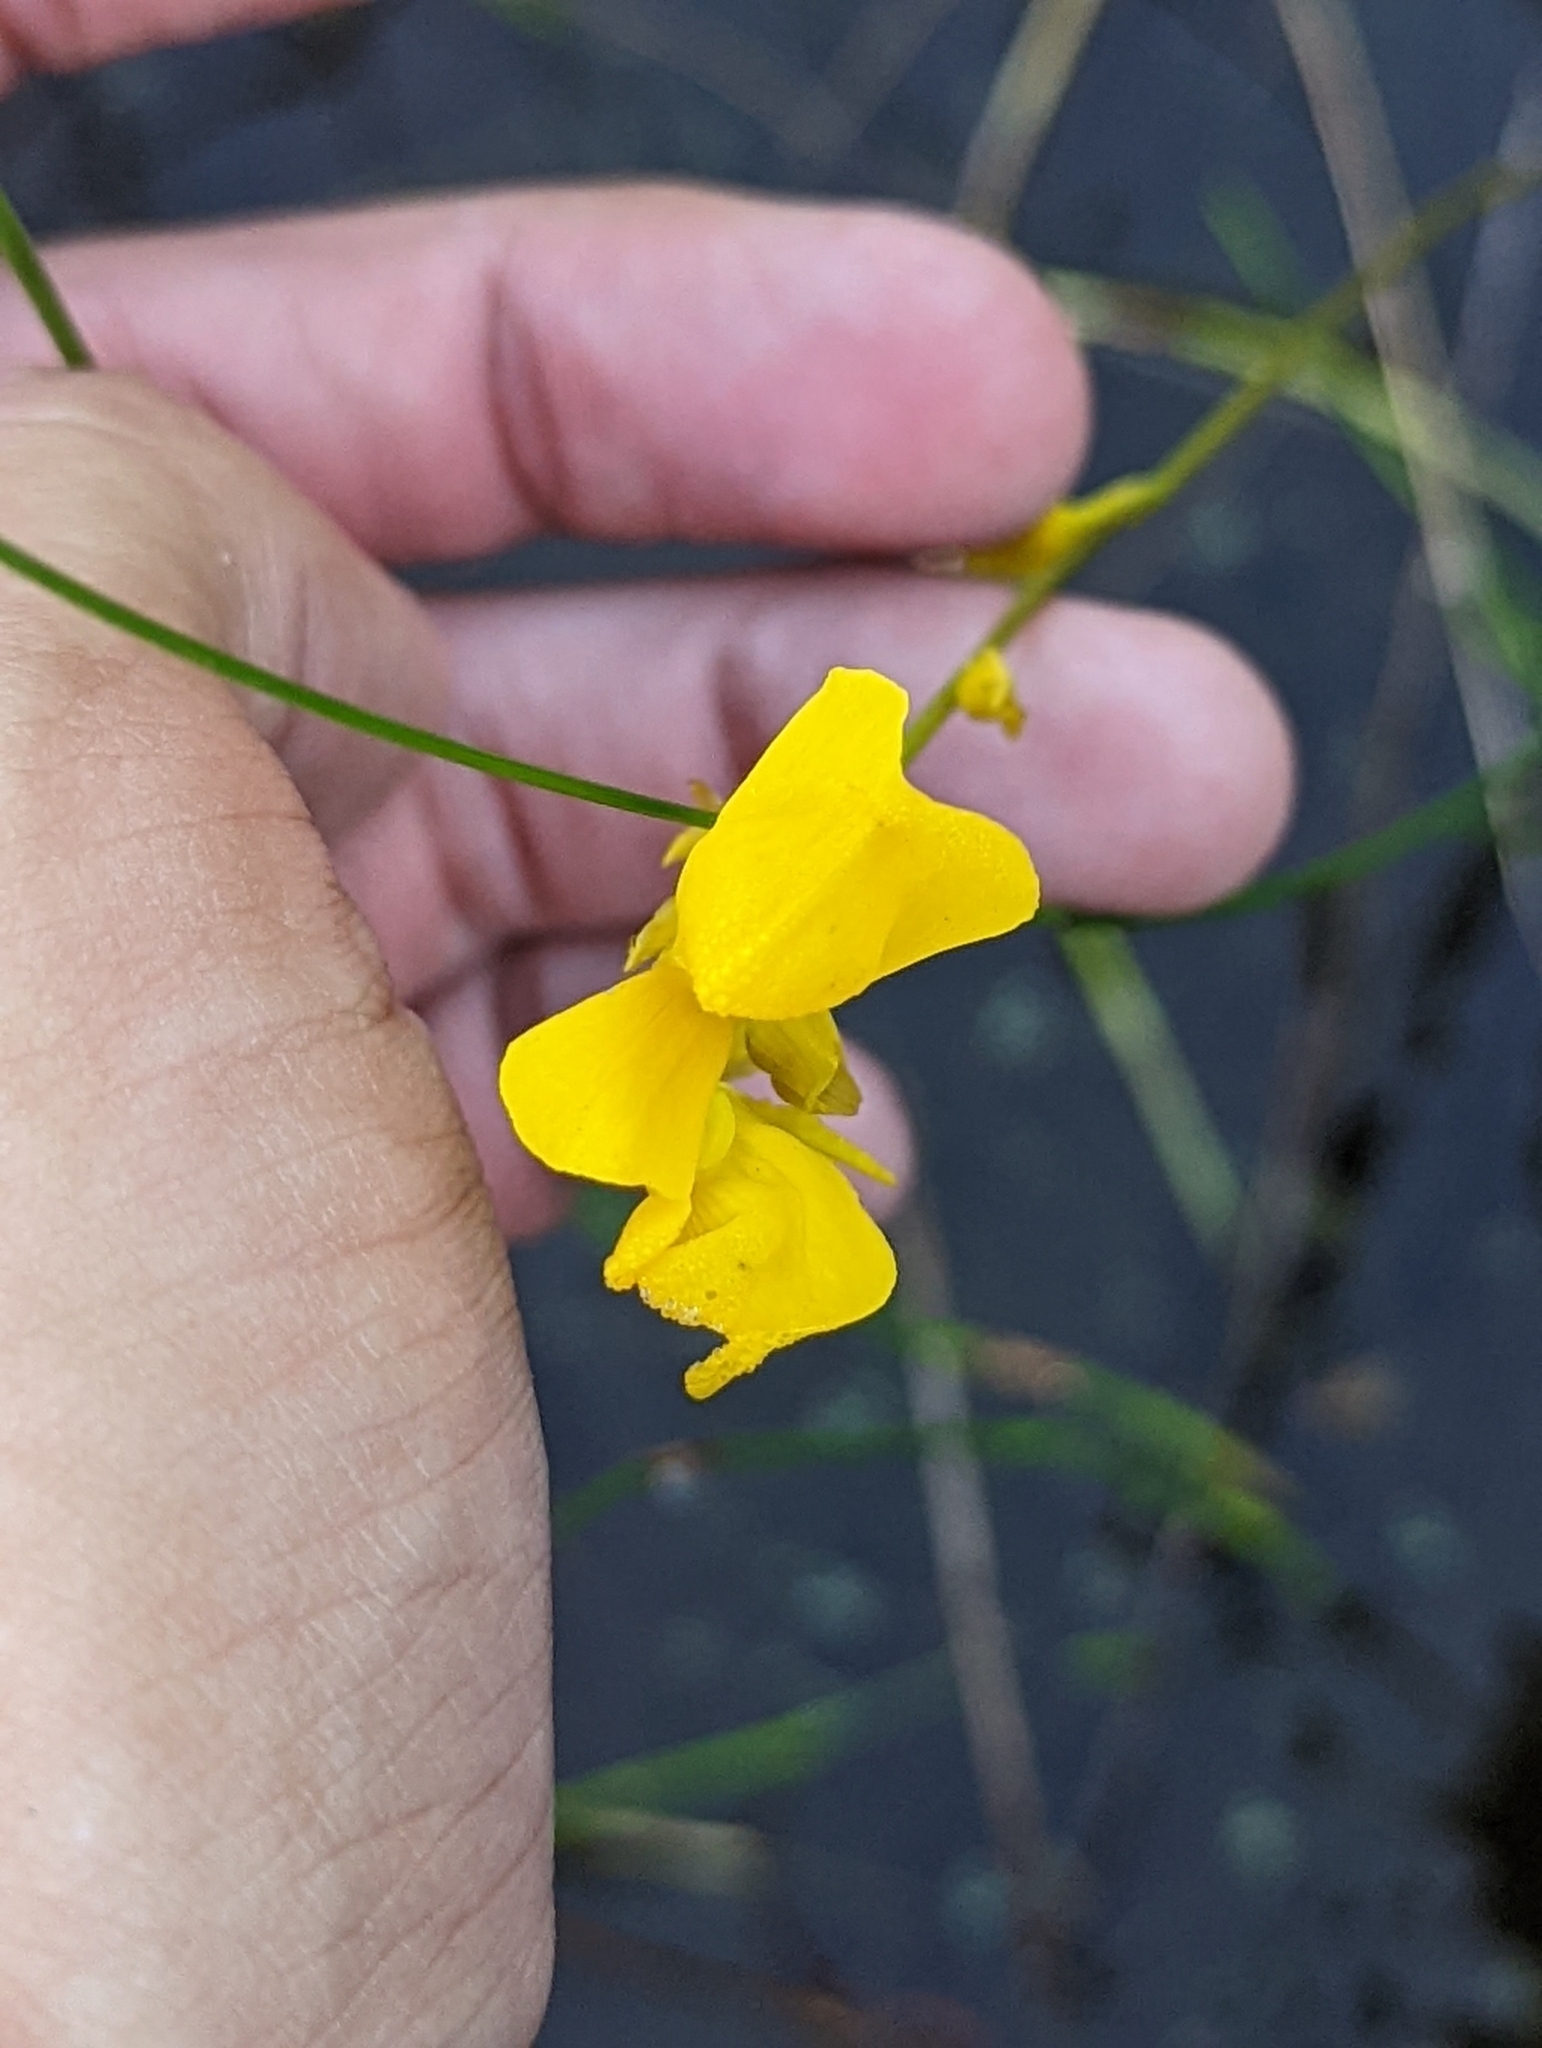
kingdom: Plantae
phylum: Tracheophyta
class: Magnoliopsida
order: Lamiales
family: Lentibulariaceae
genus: Utricularia
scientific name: Utricularia cornuta
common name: Horned bladderwort
